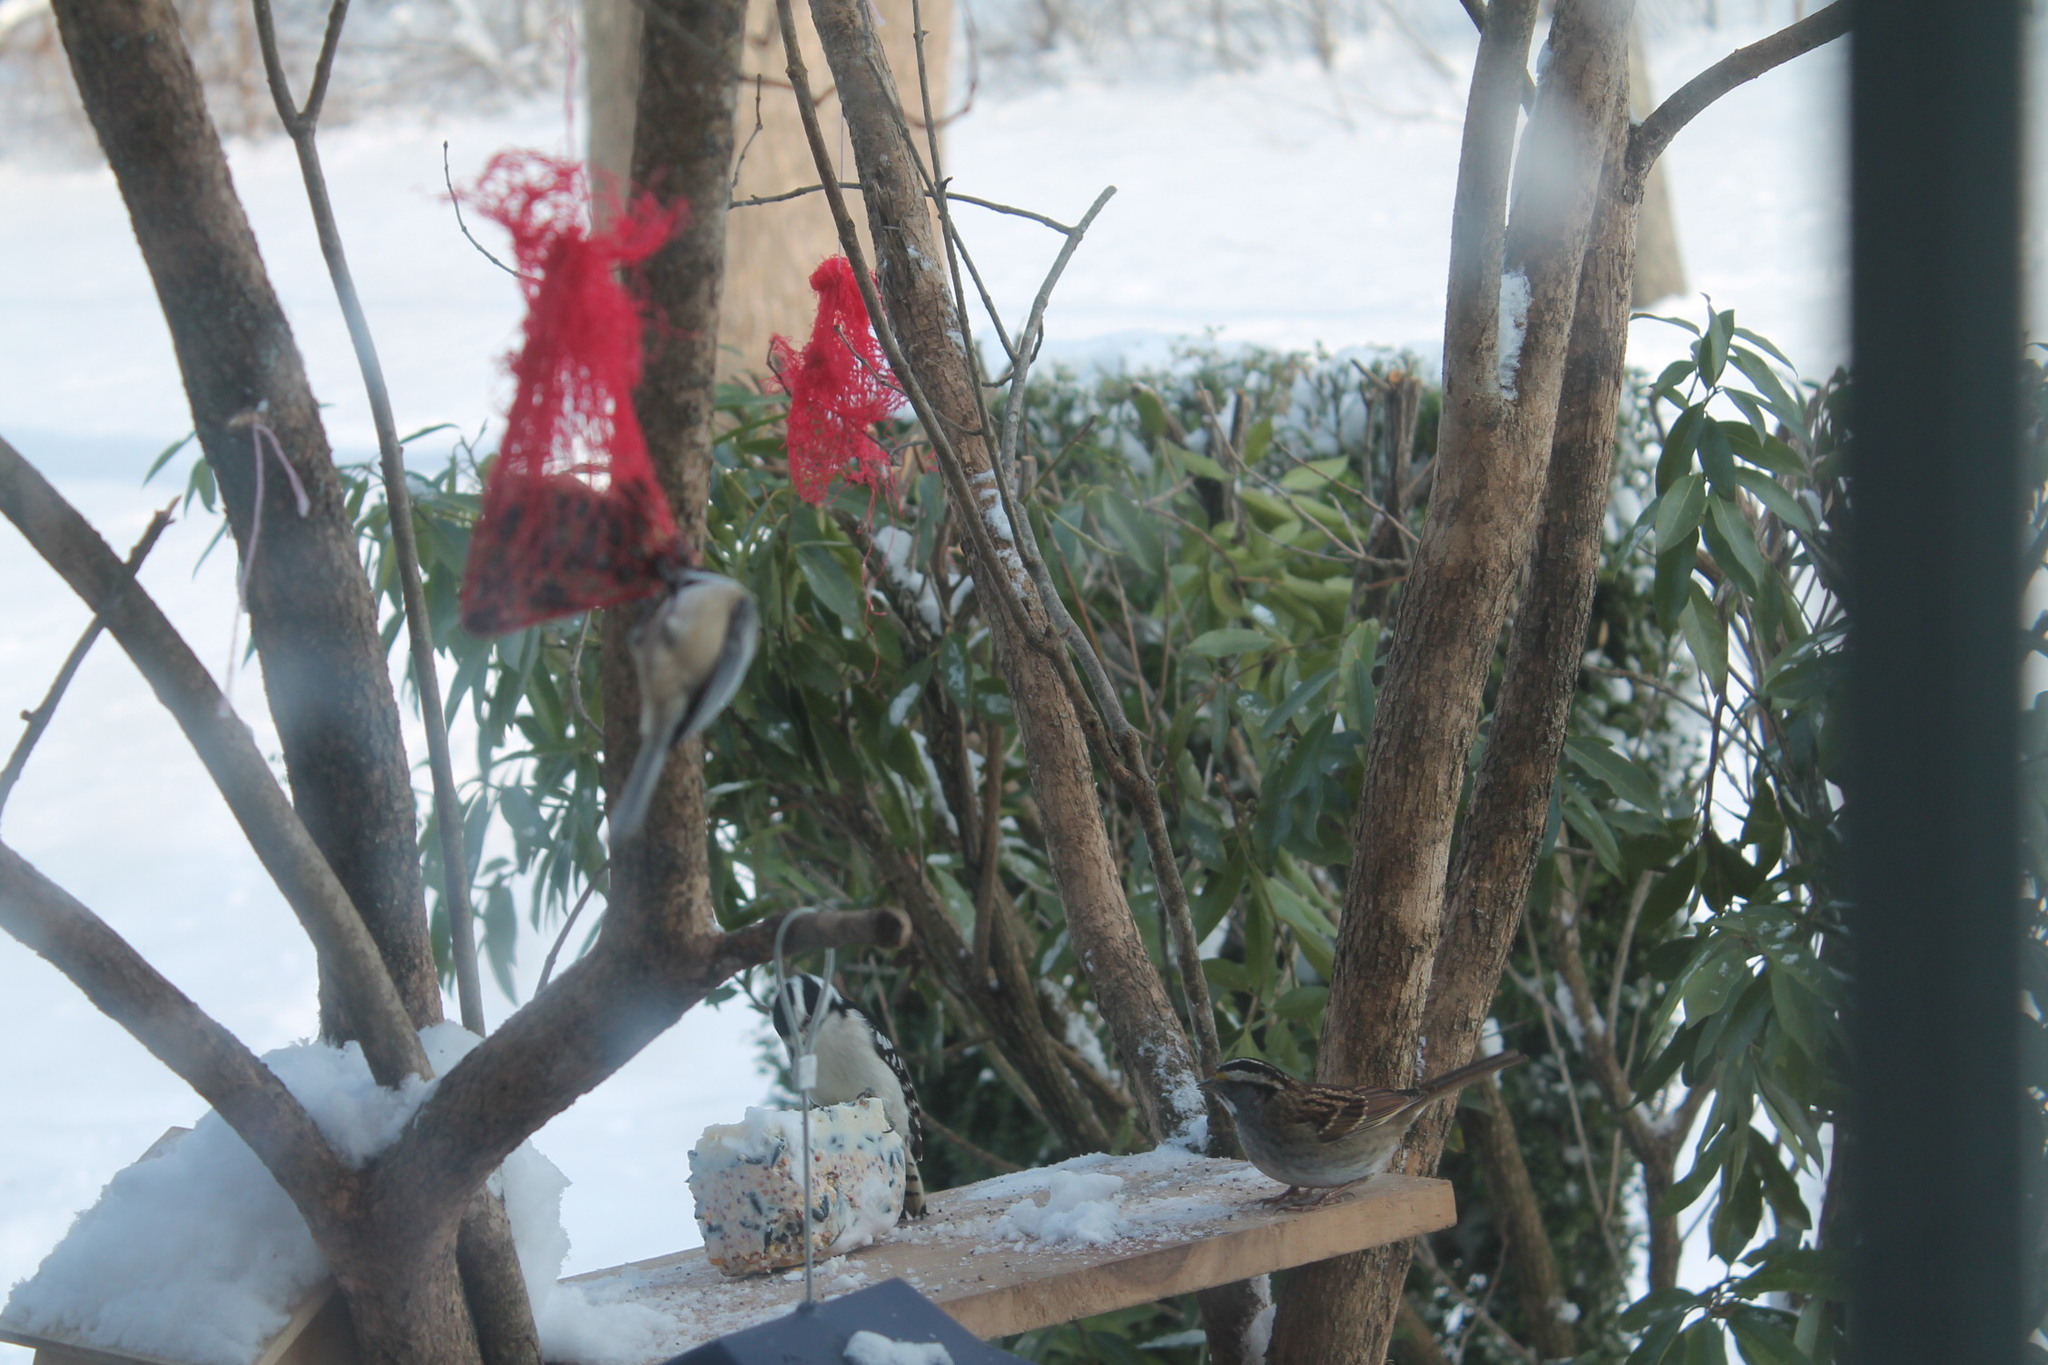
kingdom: Animalia
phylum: Chordata
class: Aves
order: Passeriformes
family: Passerellidae
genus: Zonotrichia
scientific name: Zonotrichia albicollis
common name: White-throated sparrow
